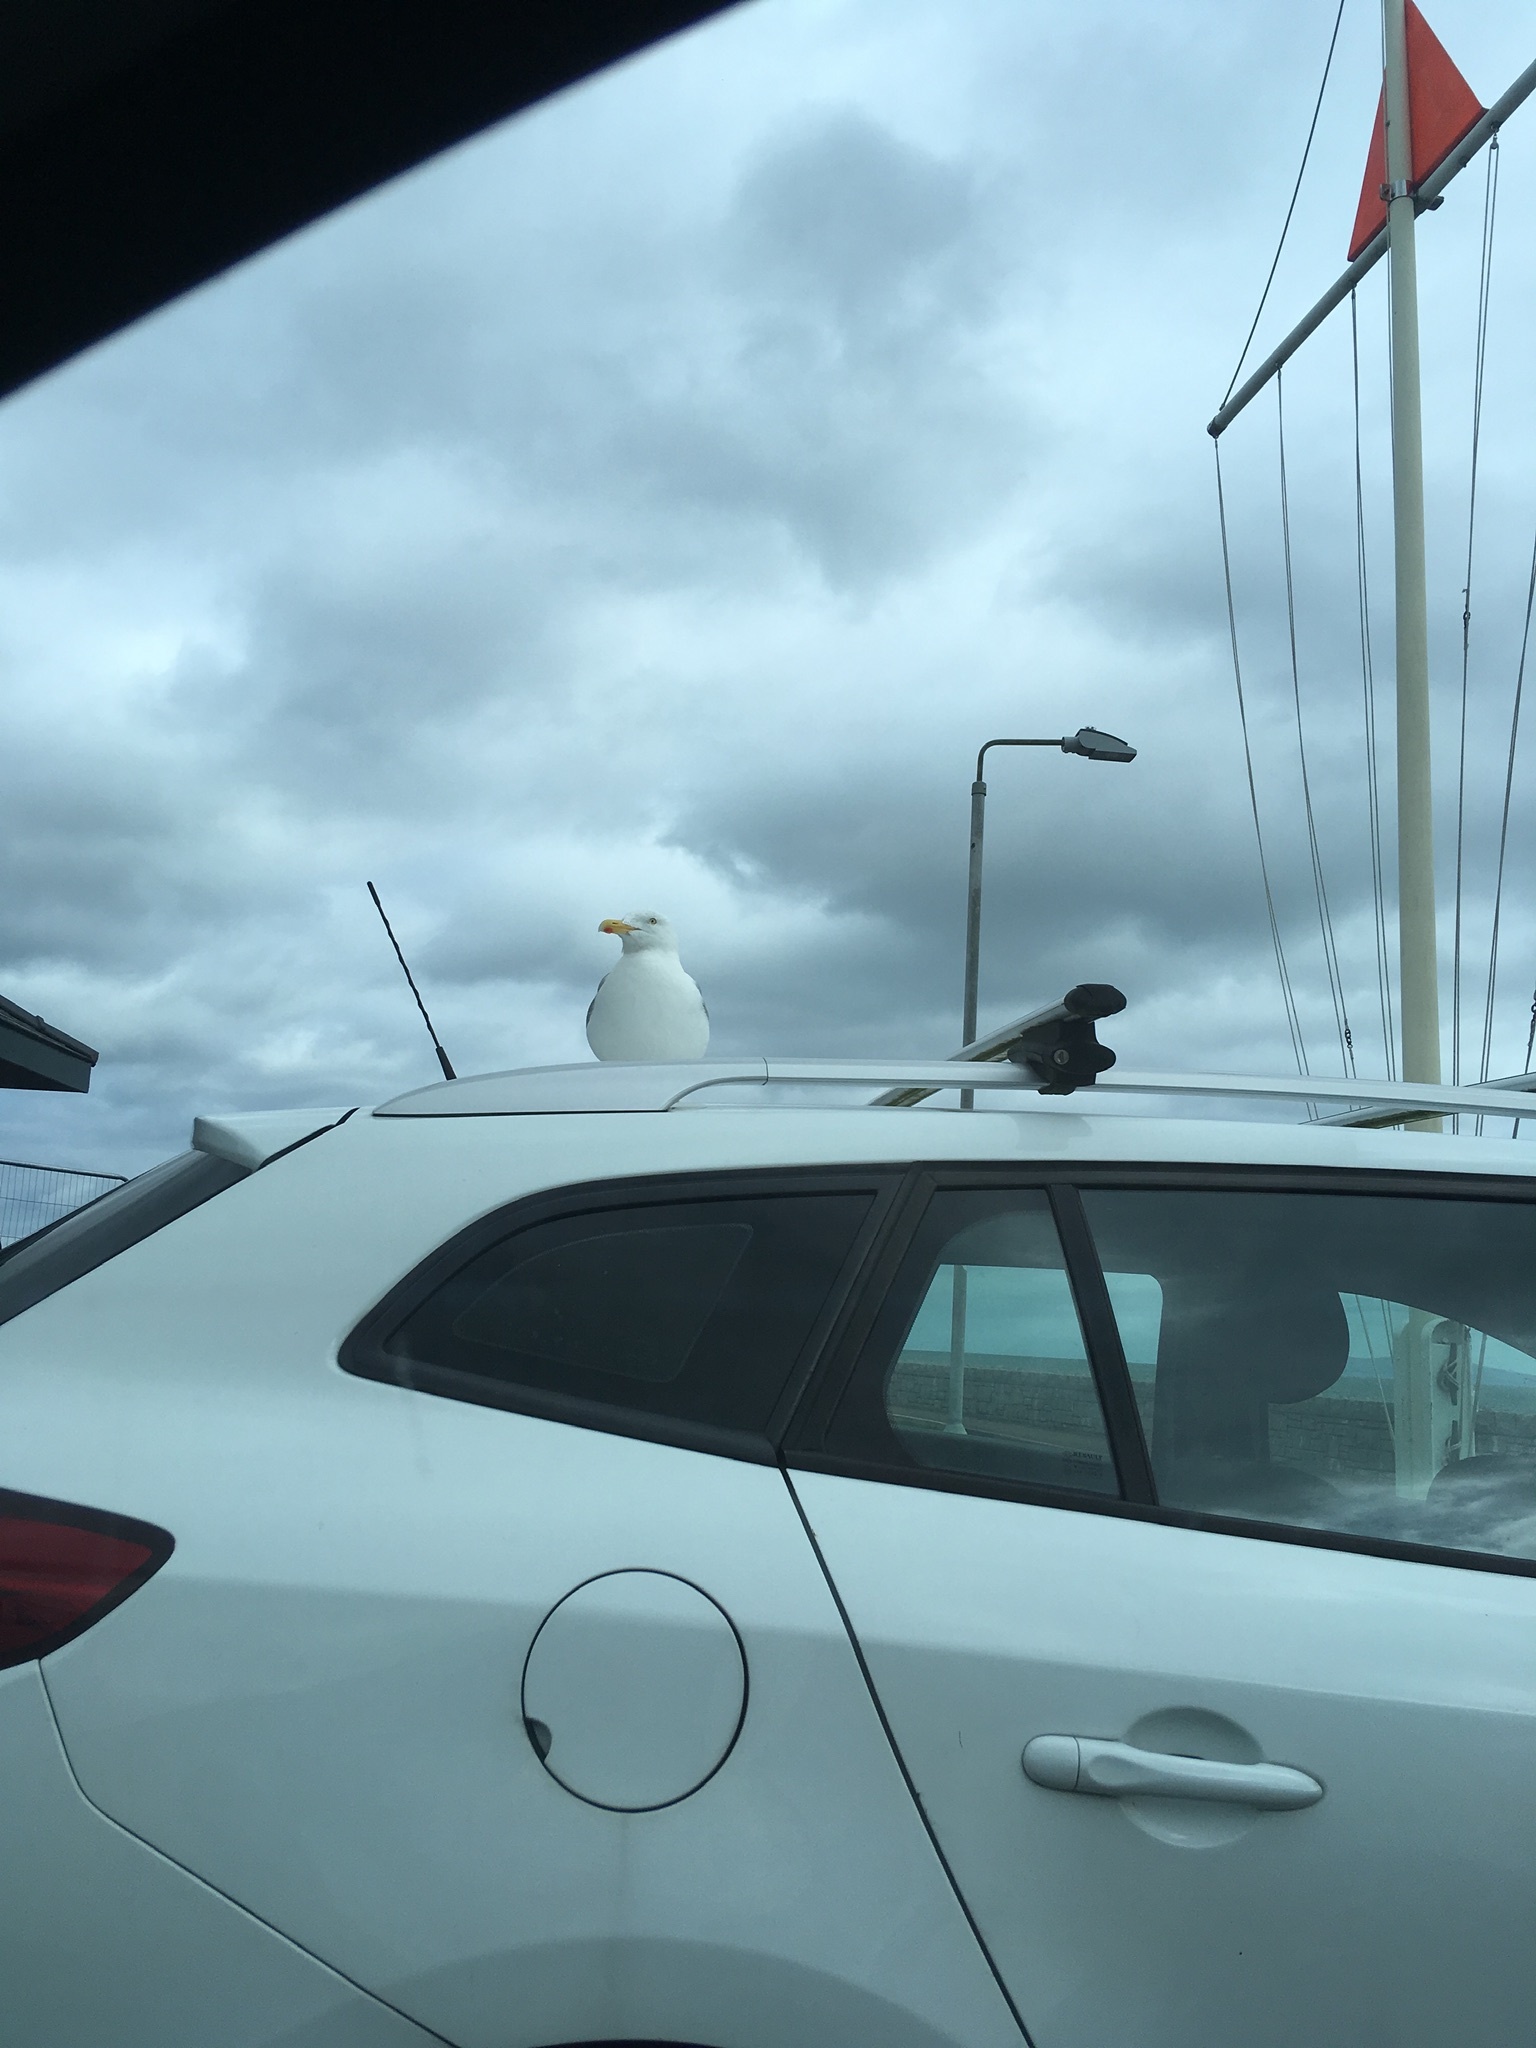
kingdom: Animalia
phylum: Chordata
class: Aves
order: Charadriiformes
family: Laridae
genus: Larus
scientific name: Larus argentatus
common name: Herring gull
